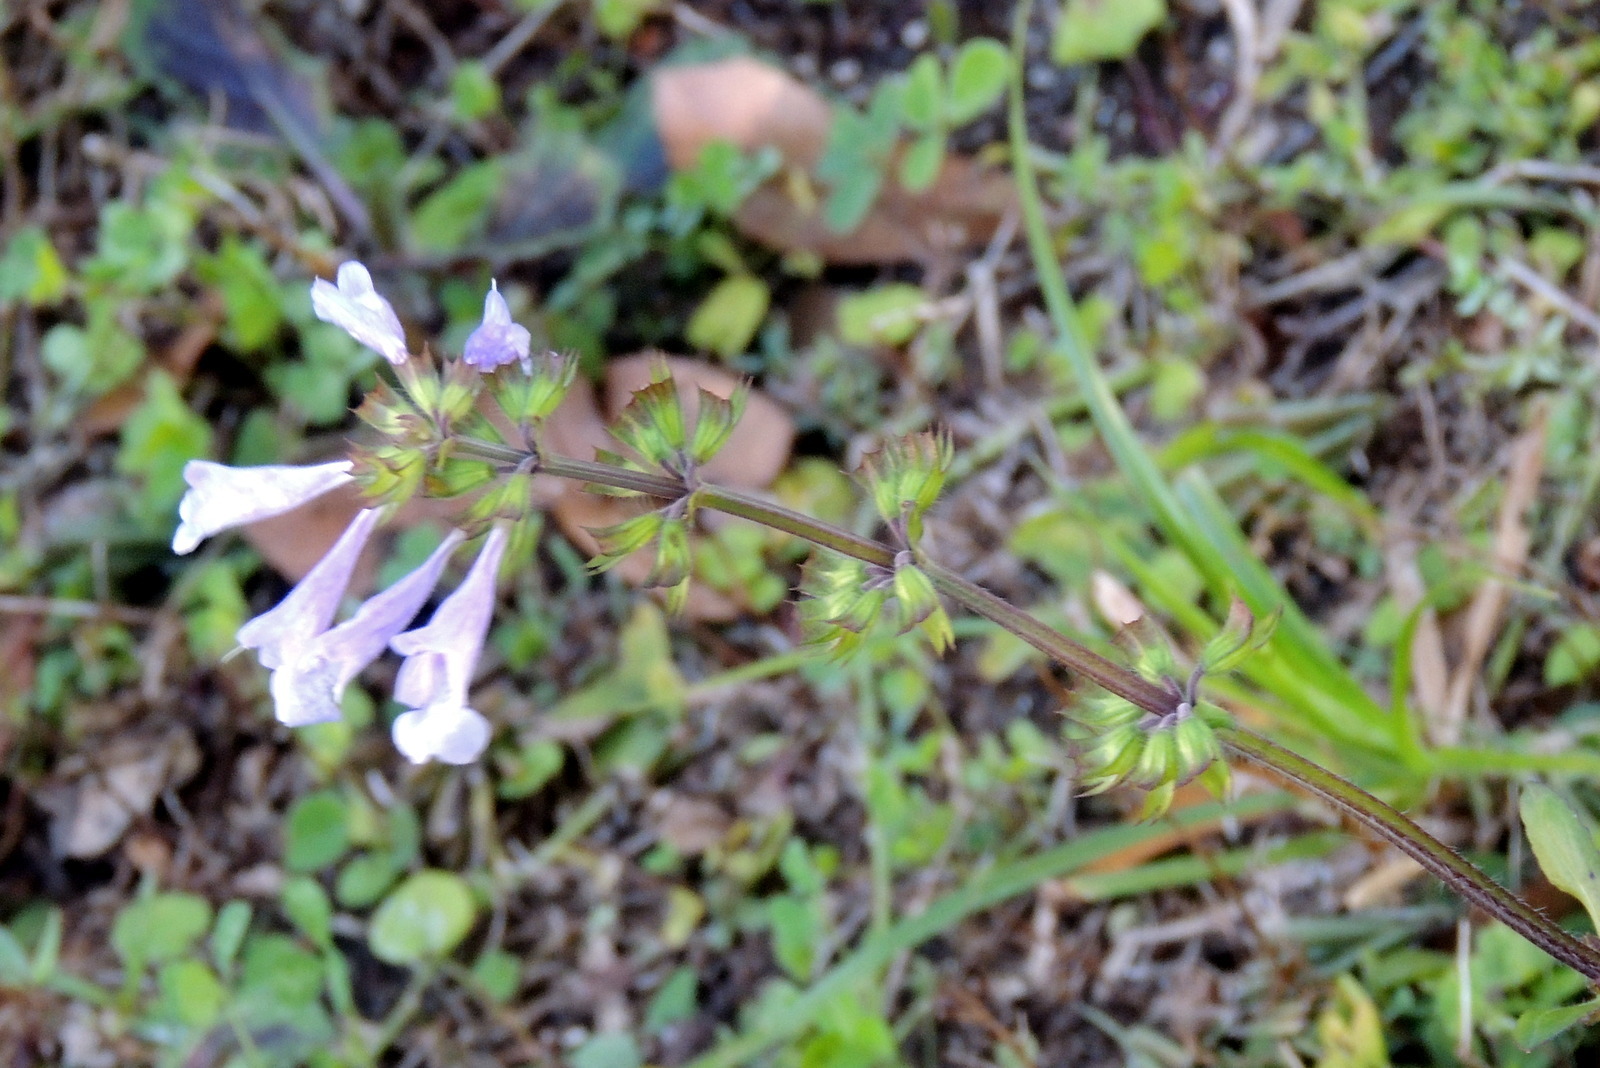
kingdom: Plantae
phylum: Tracheophyta
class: Magnoliopsida
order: Lamiales
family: Lamiaceae
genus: Salvia
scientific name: Salvia lyrata
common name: Cancerweed
